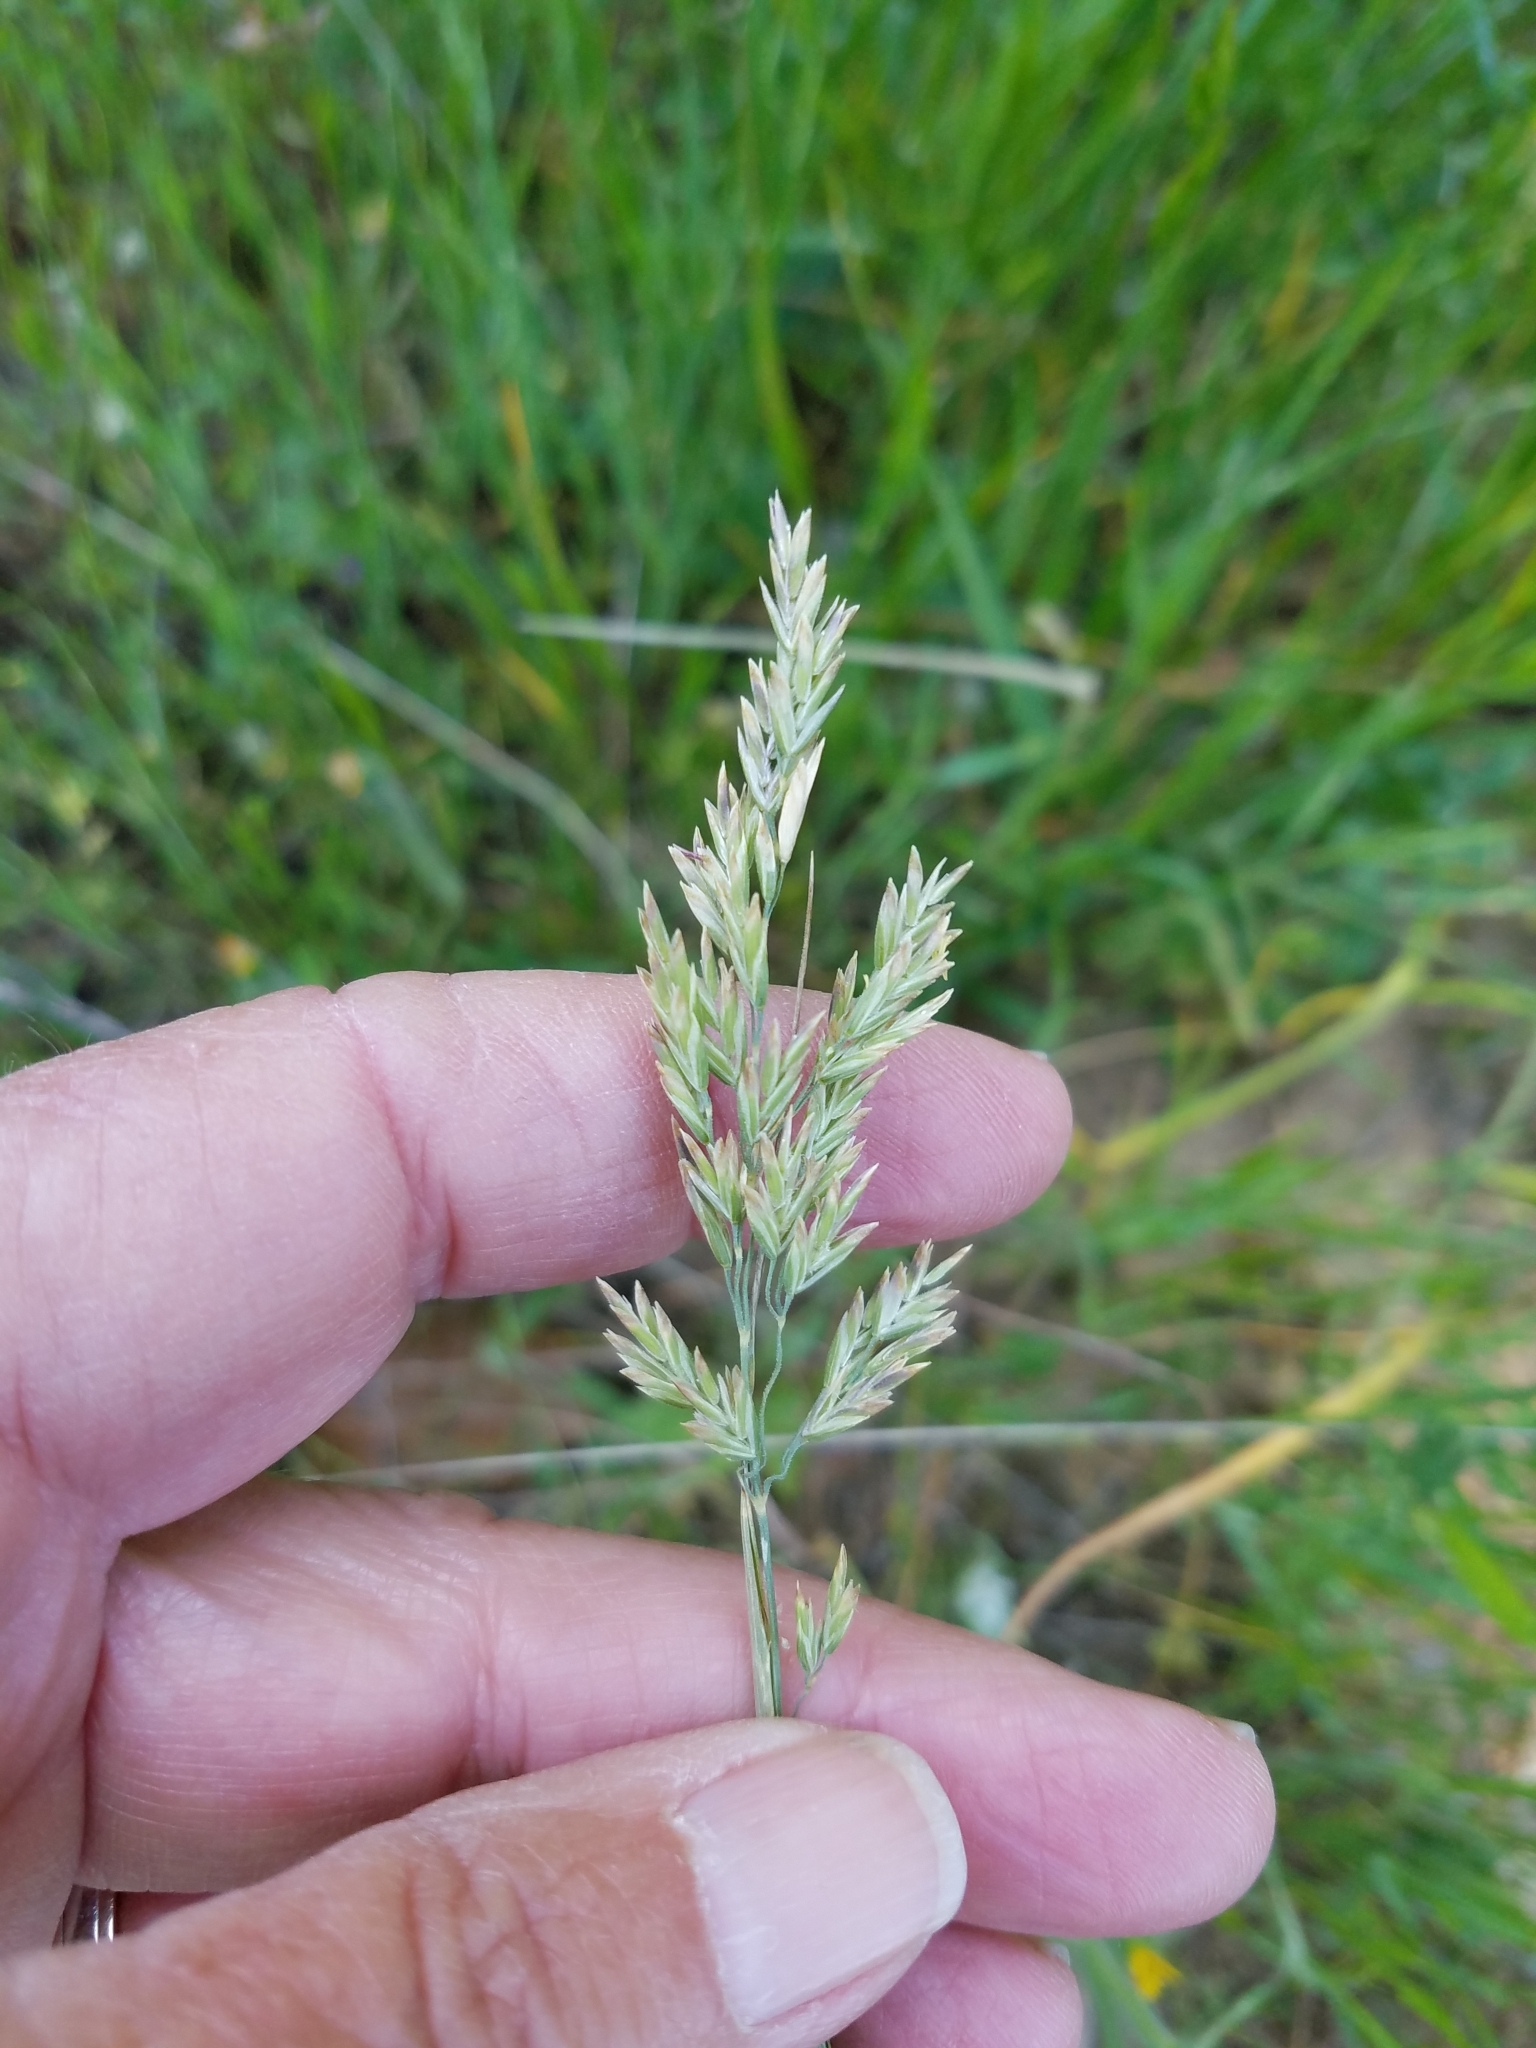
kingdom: Plantae
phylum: Tracheophyta
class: Liliopsida
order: Poales
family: Poaceae
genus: Poa
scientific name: Poa secunda
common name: Sandberg bluegrass
